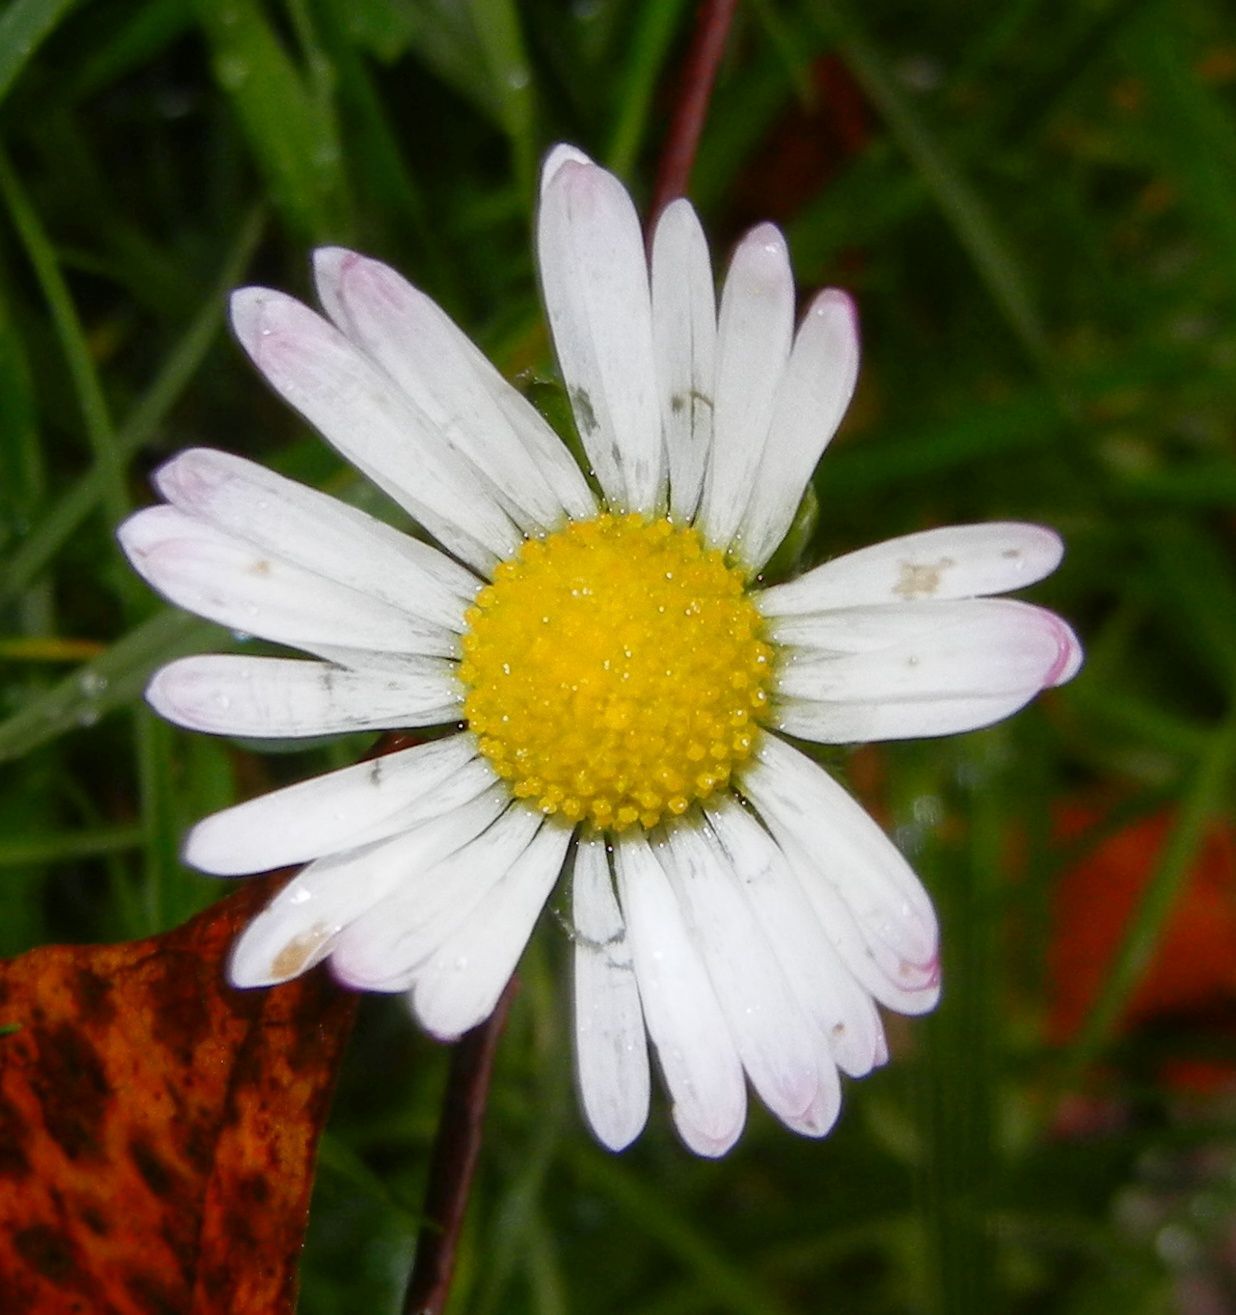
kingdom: Plantae
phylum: Tracheophyta
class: Magnoliopsida
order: Asterales
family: Asteraceae
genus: Bellis
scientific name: Bellis perennis
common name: Lawndaisy
